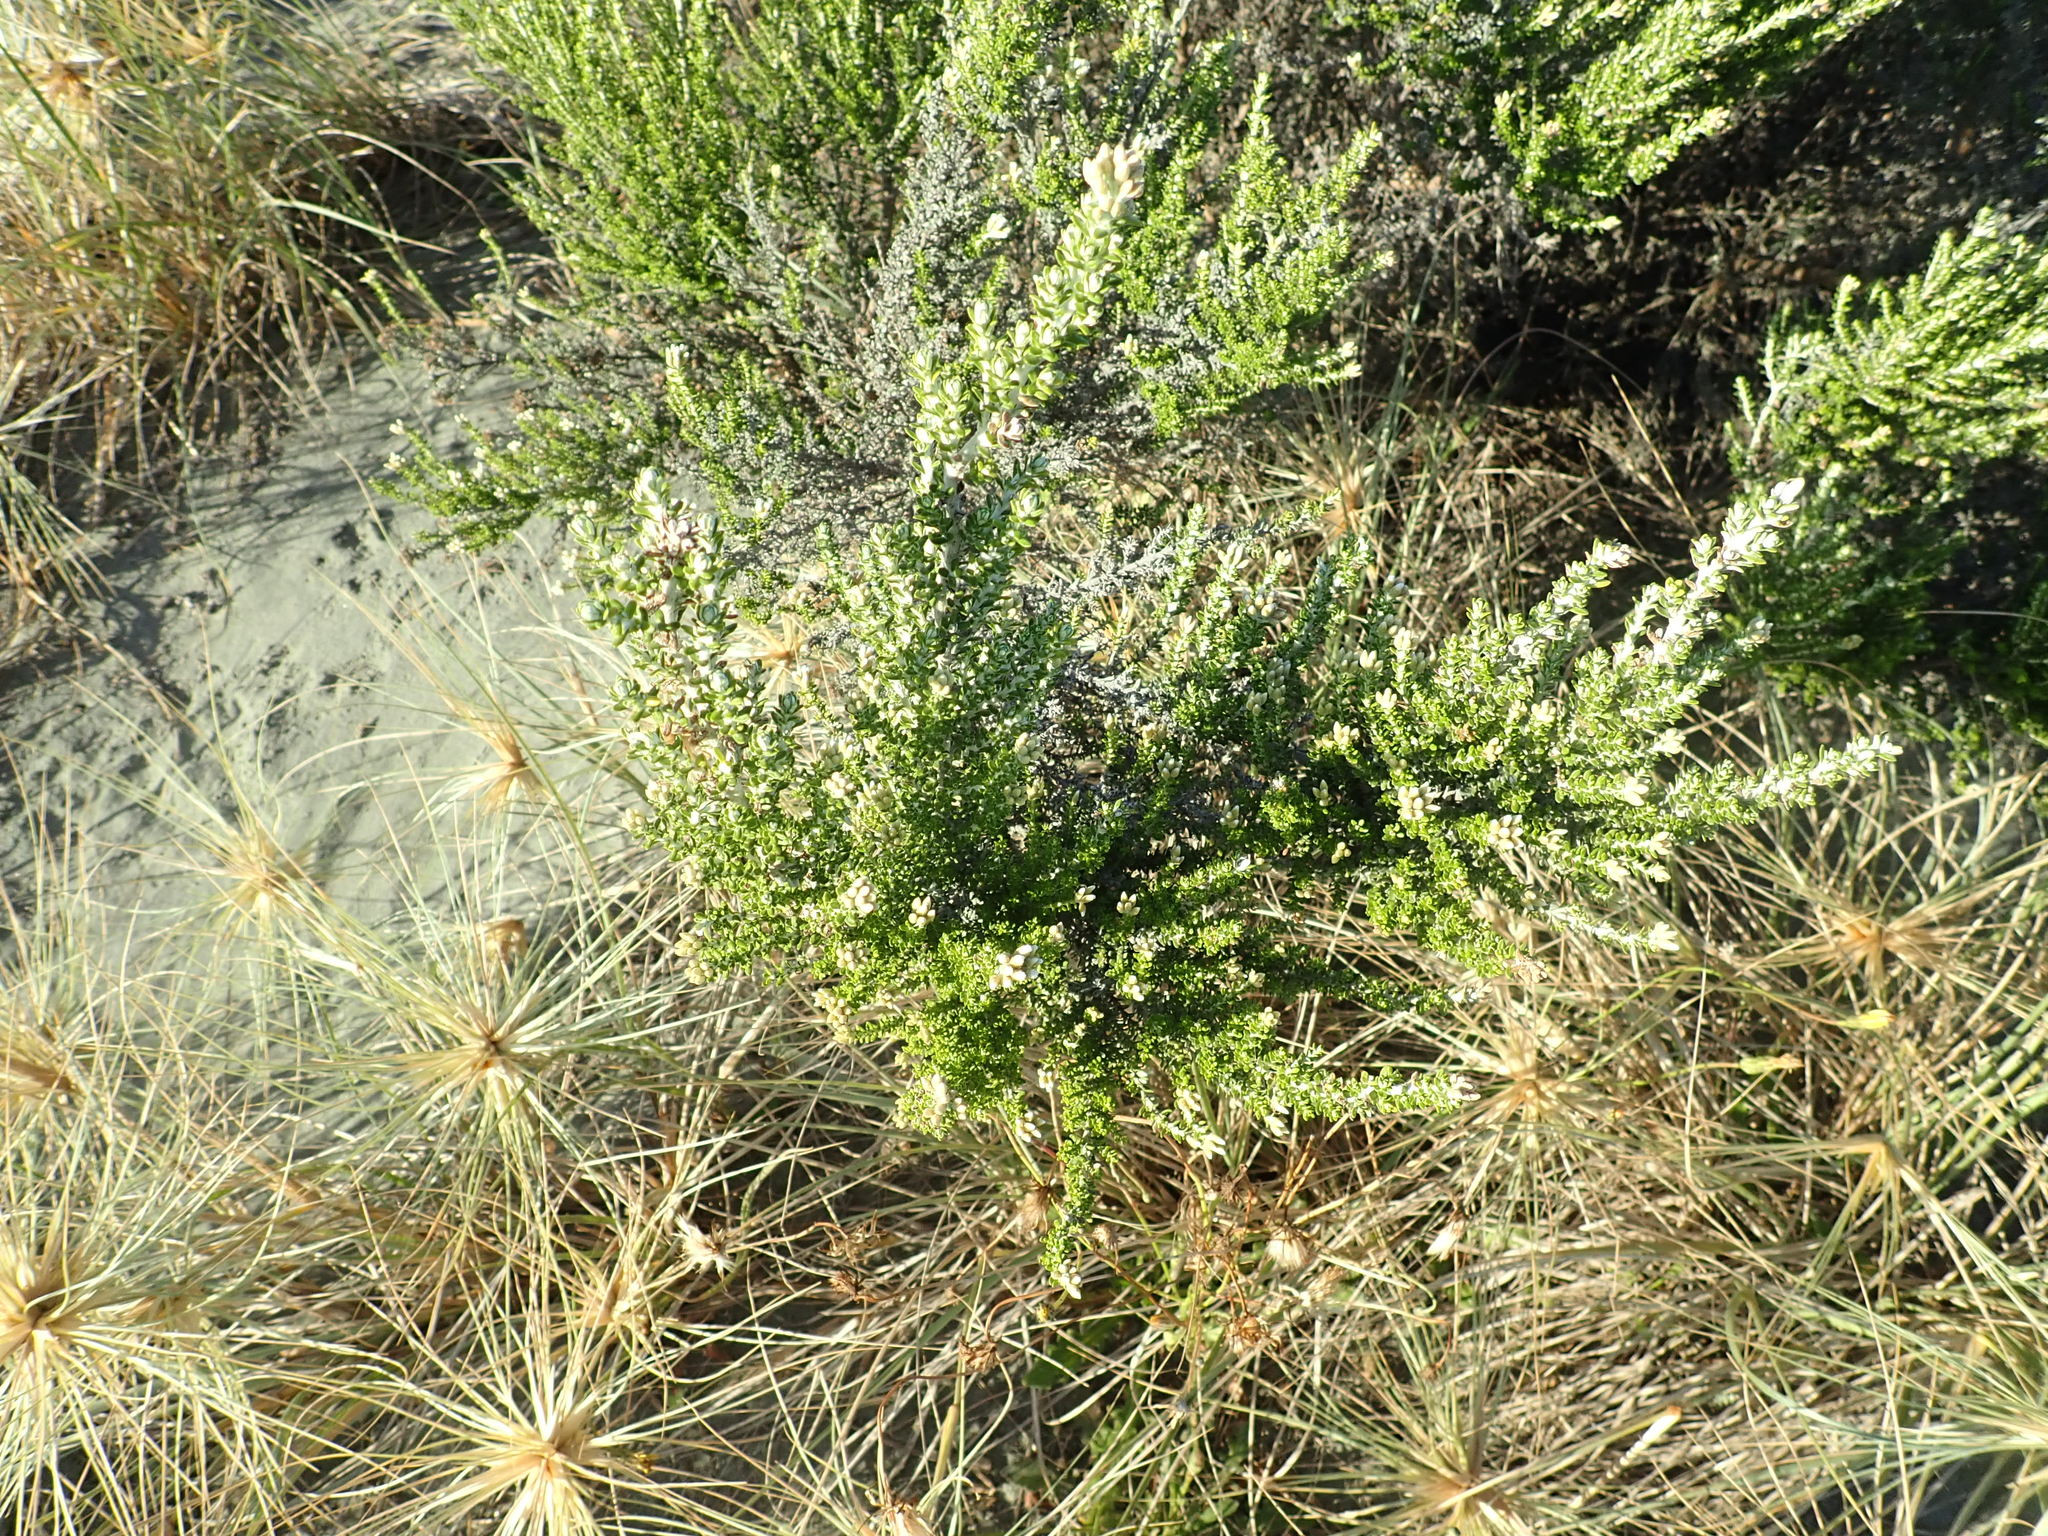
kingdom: Plantae
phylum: Tracheophyta
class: Magnoliopsida
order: Asterales
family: Asteraceae
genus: Ozothamnus
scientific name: Ozothamnus leptophyllus
